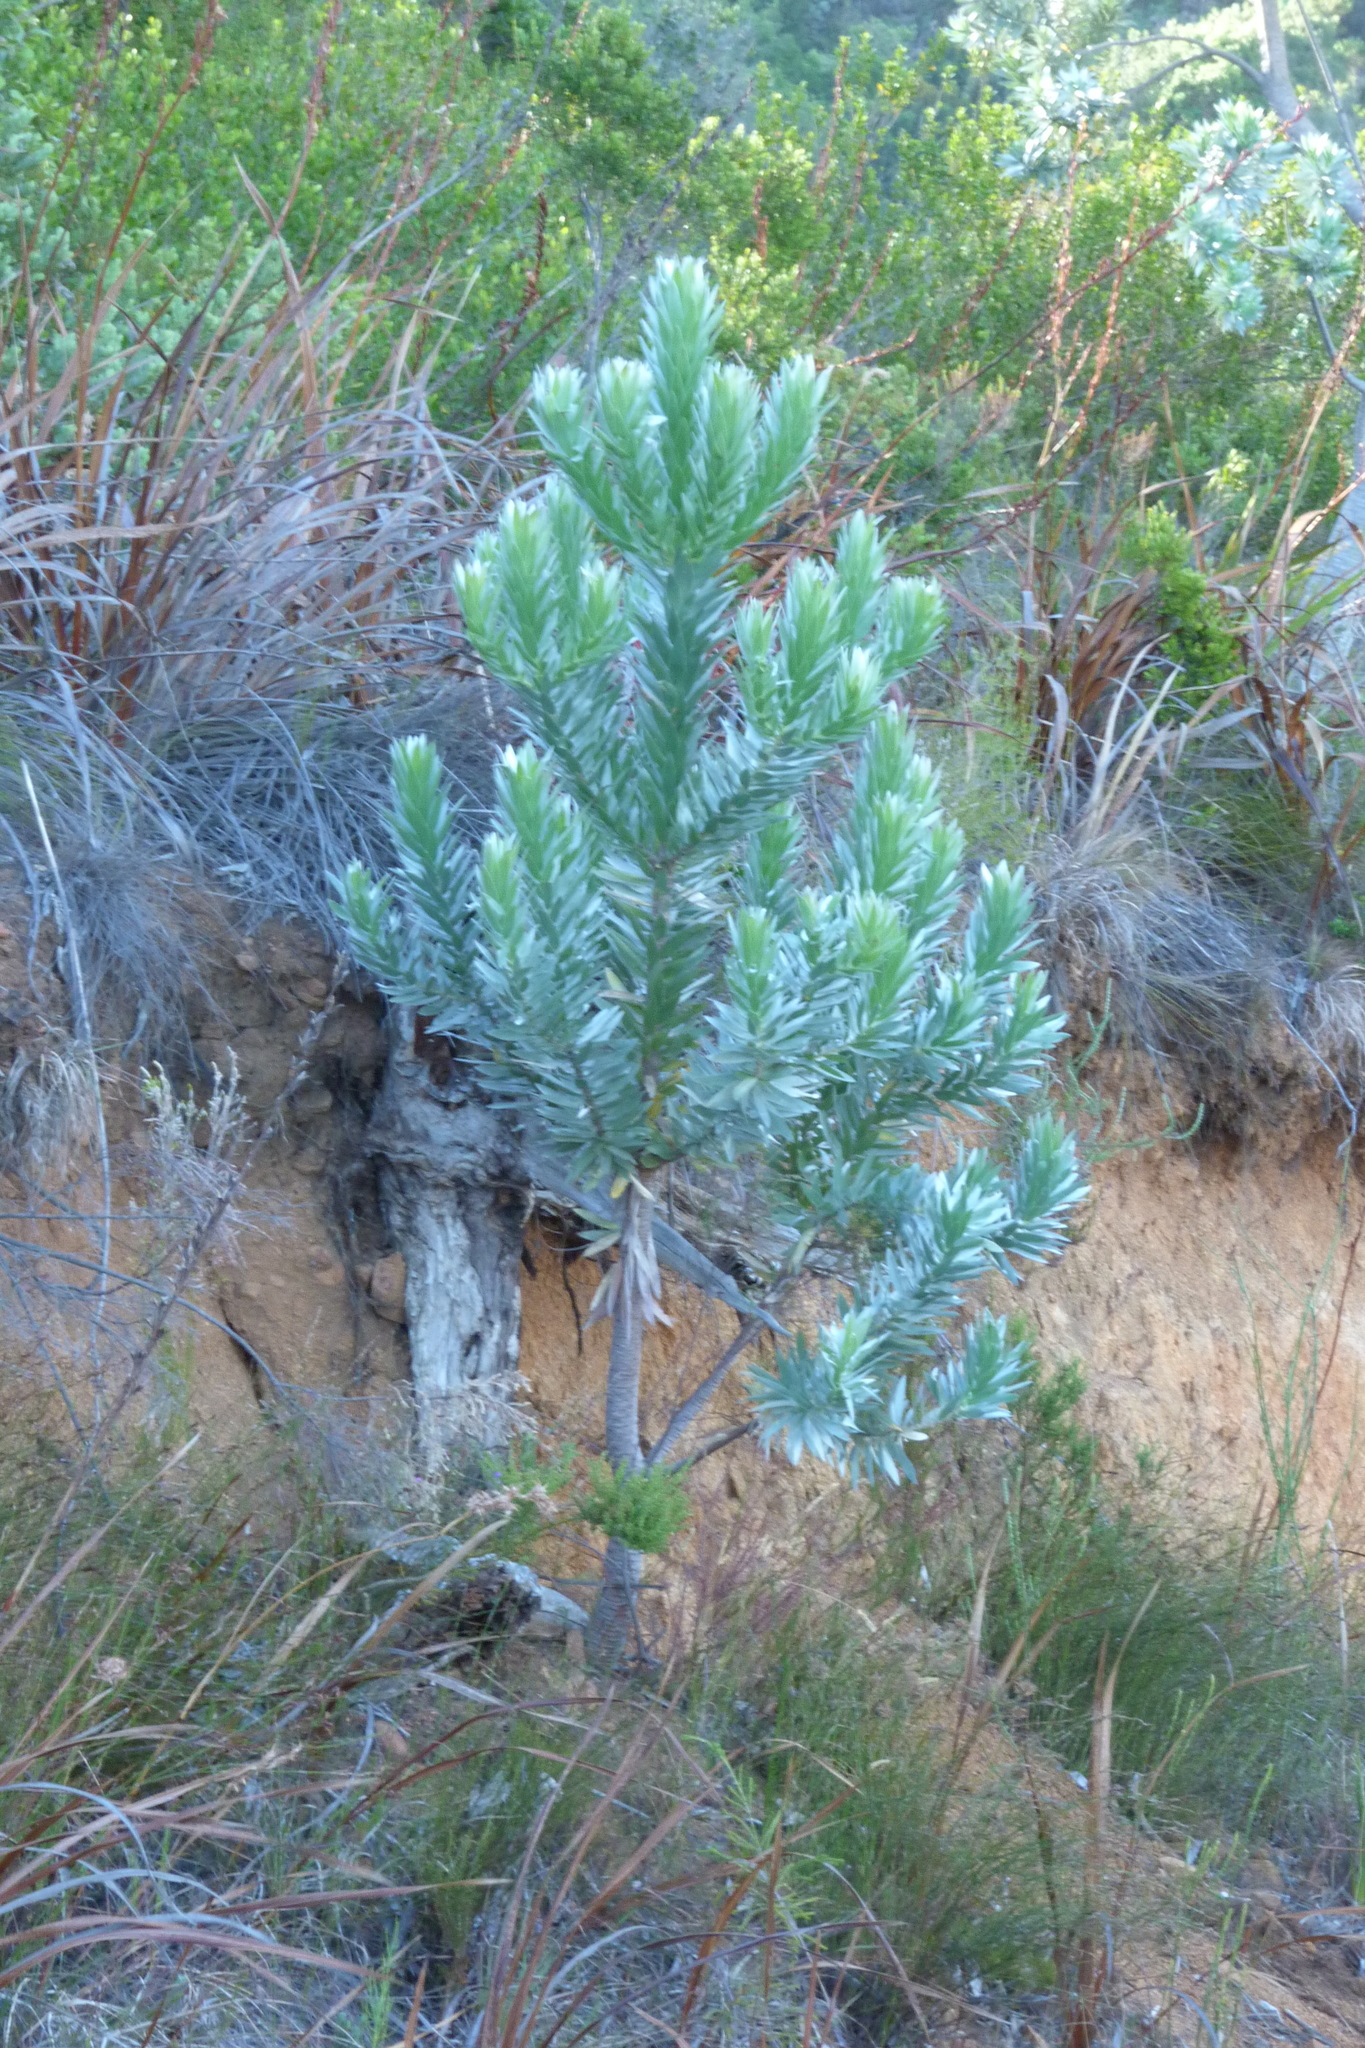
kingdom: Plantae
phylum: Tracheophyta
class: Magnoliopsida
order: Proteales
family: Proteaceae
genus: Leucadendron
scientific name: Leucadendron argenteum
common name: Cape silver tree
